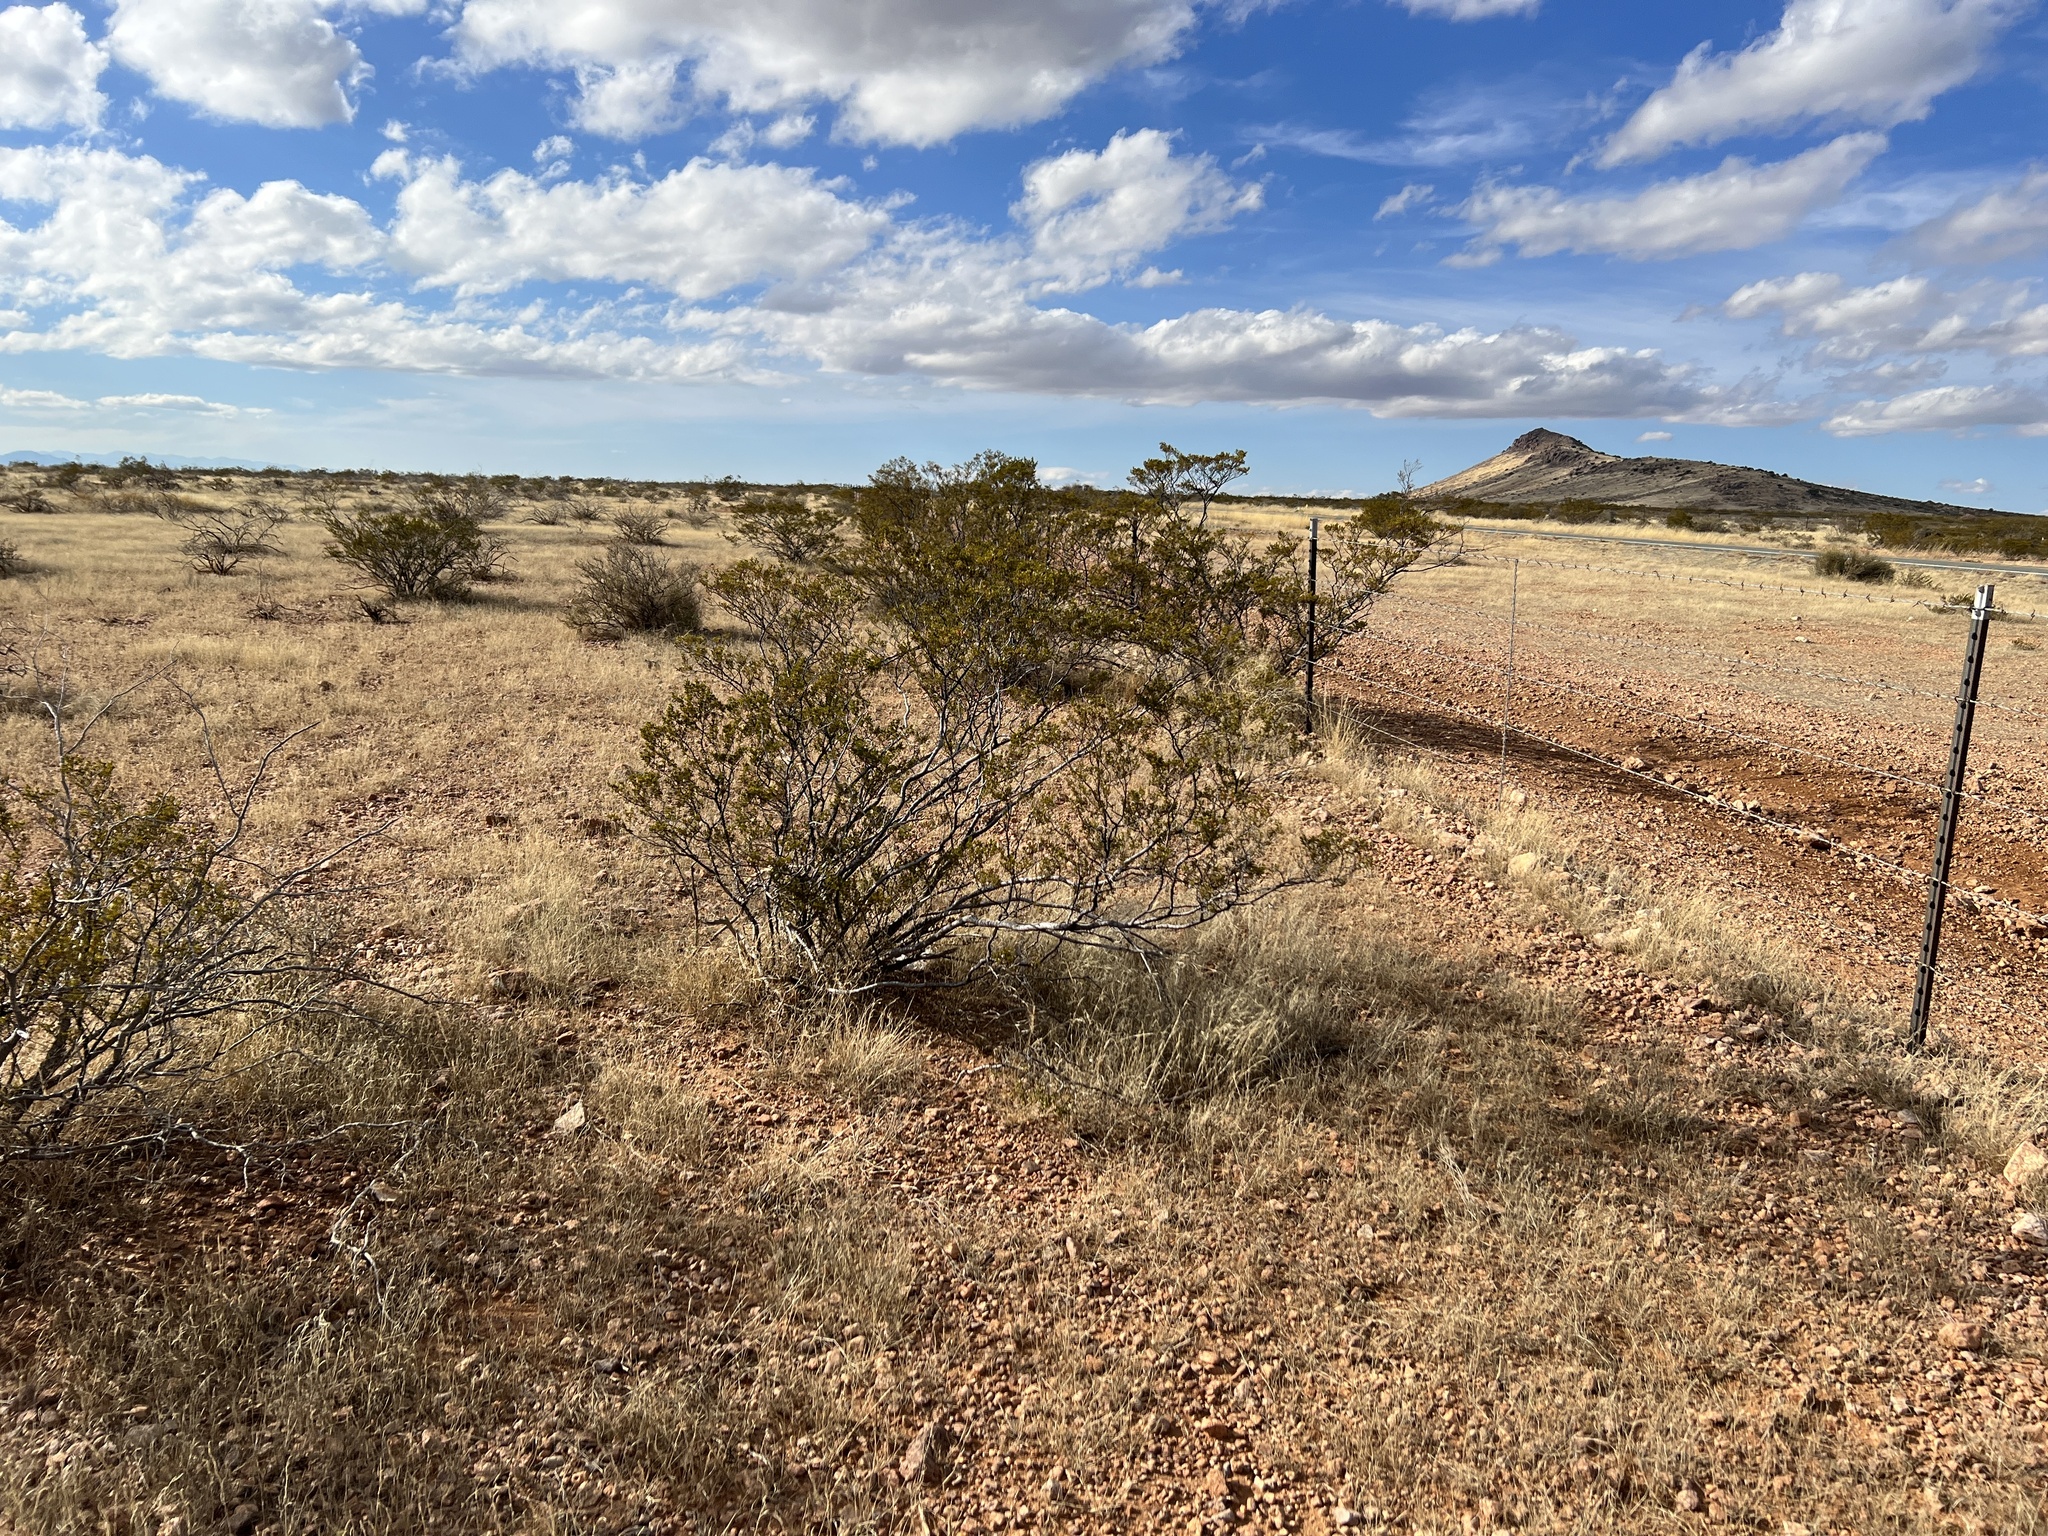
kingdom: Plantae
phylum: Tracheophyta
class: Magnoliopsida
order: Zygophyllales
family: Zygophyllaceae
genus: Larrea
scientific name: Larrea tridentata
